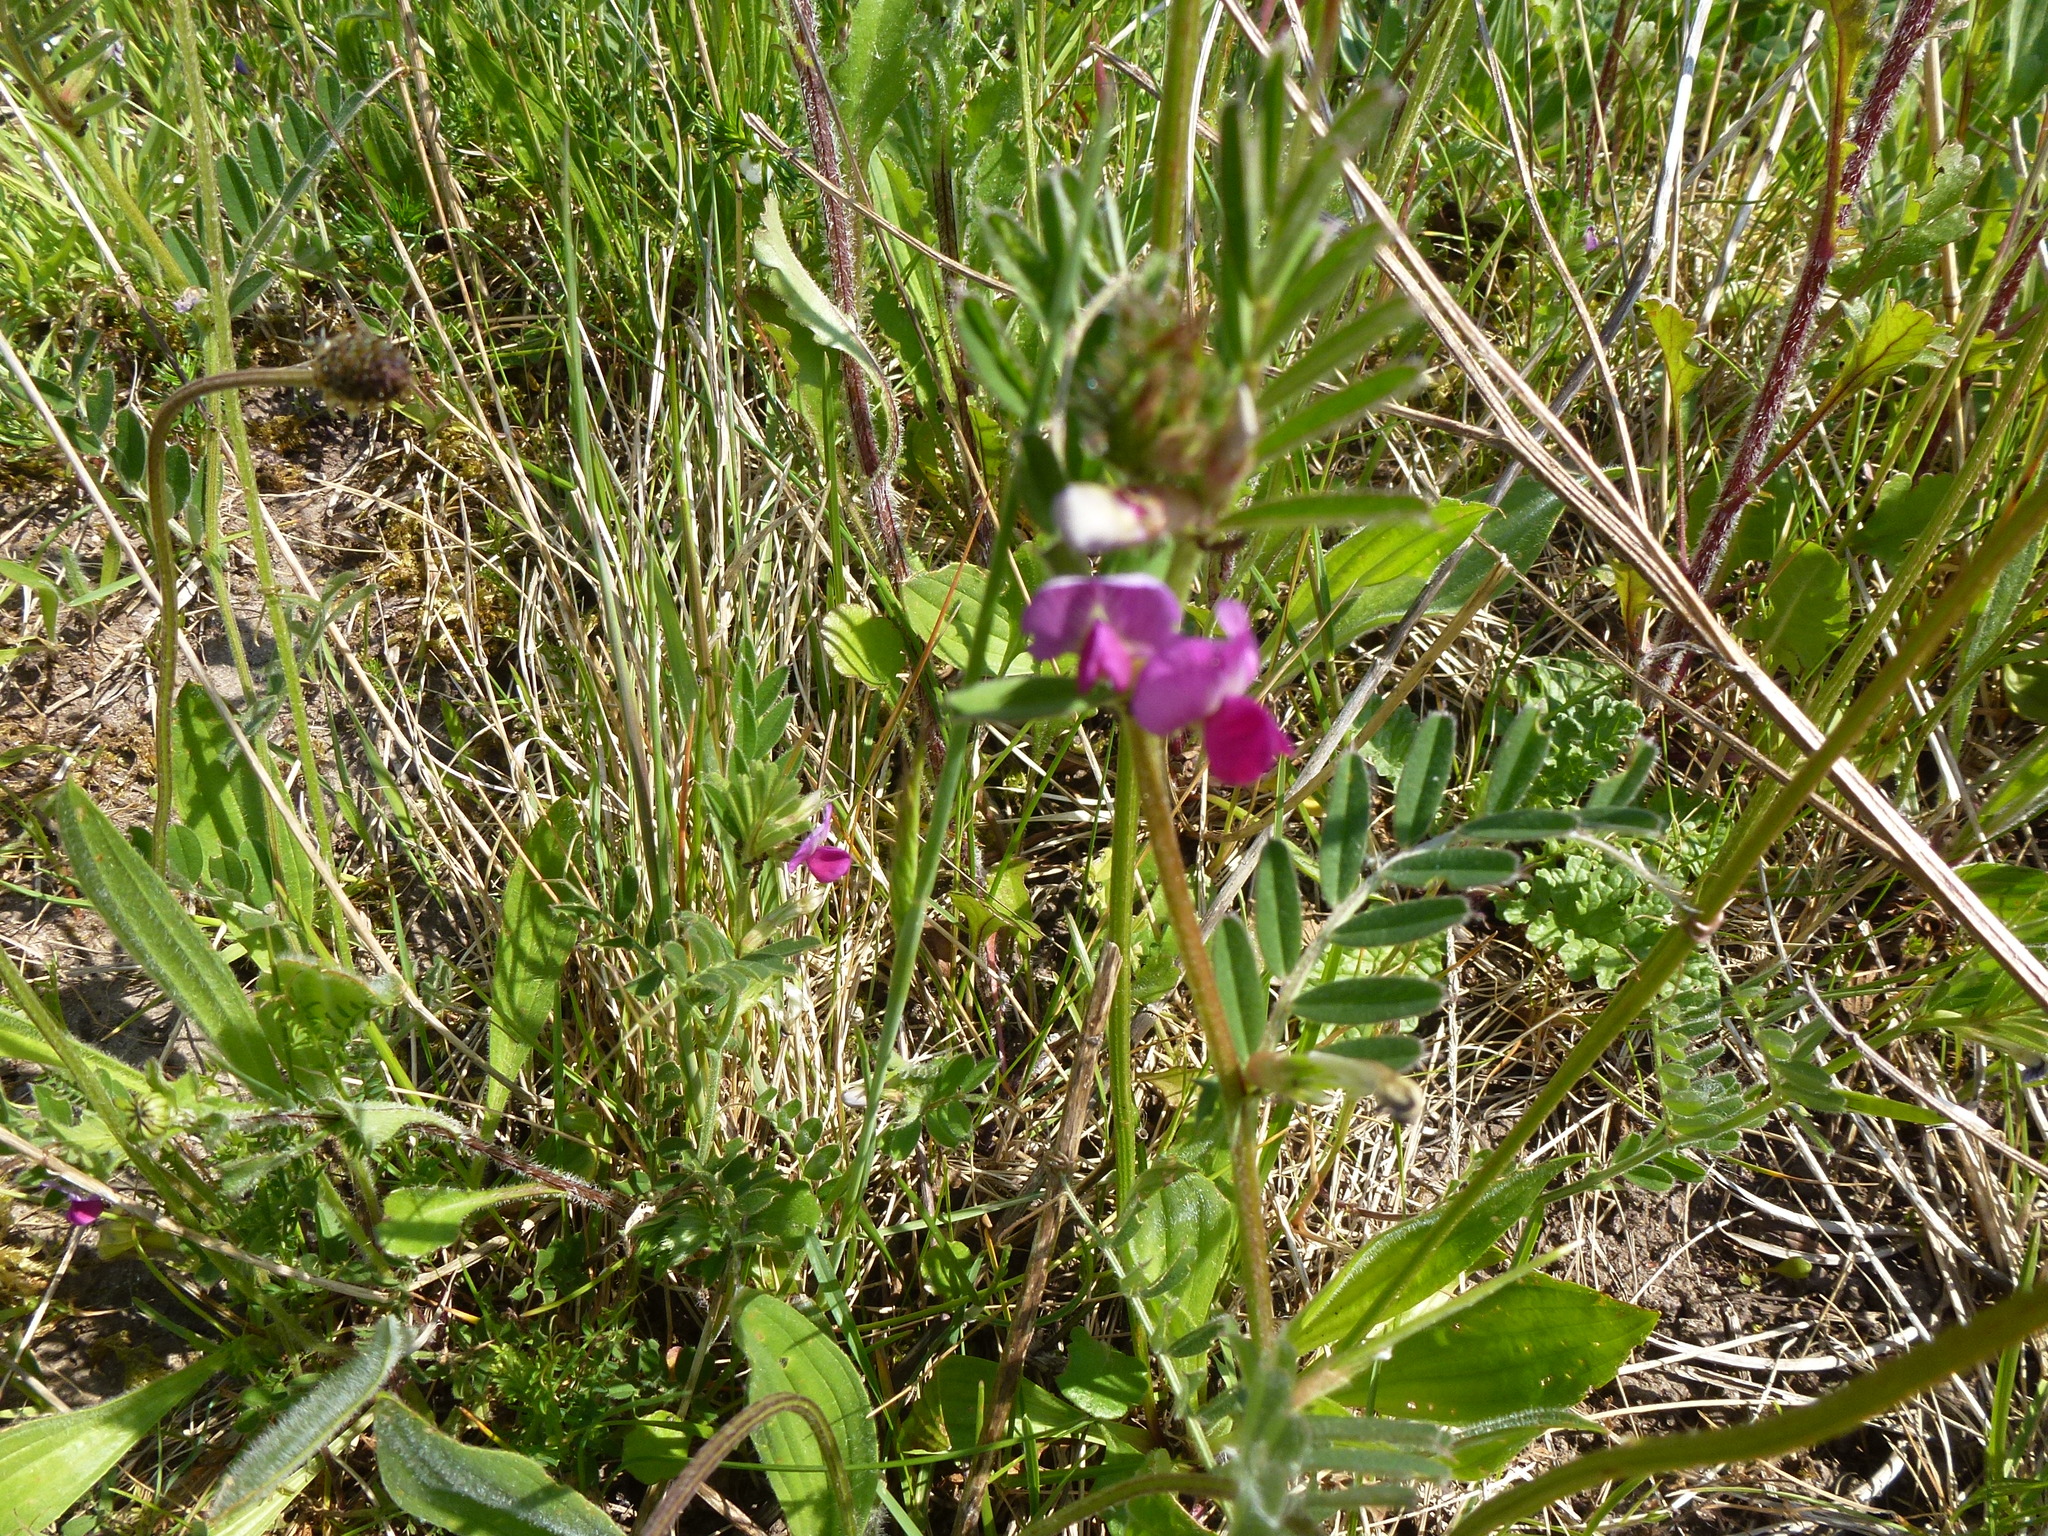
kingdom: Plantae
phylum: Tracheophyta
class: Magnoliopsida
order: Fabales
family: Fabaceae
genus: Vicia
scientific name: Vicia sativa
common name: Garden vetch
